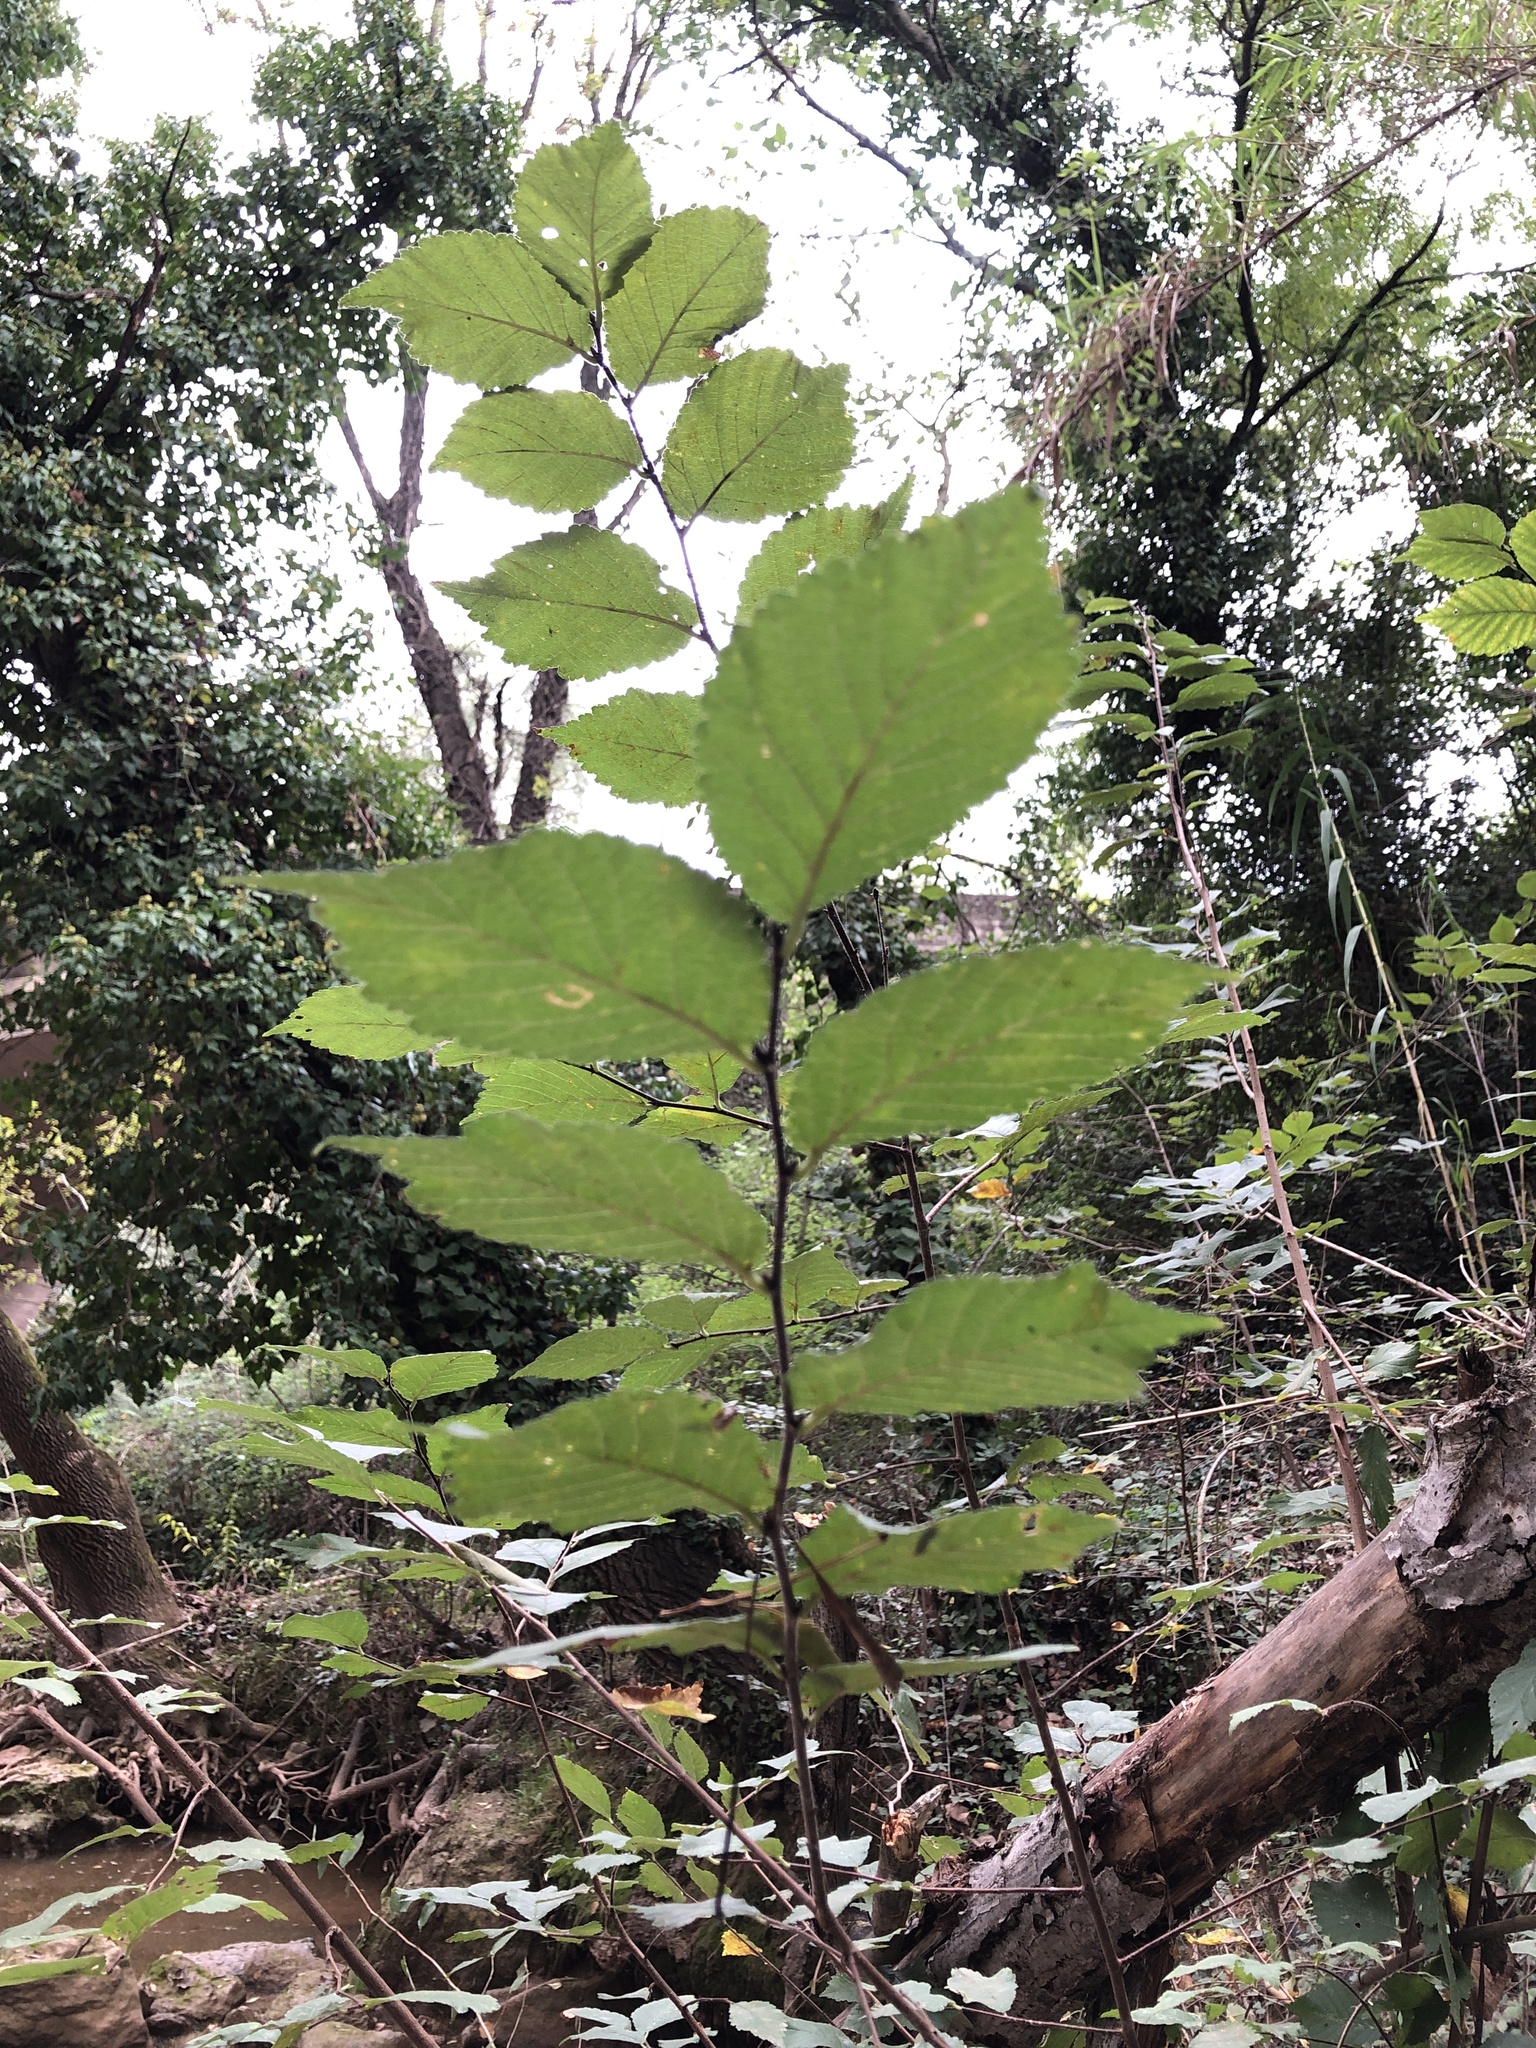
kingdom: Plantae
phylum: Tracheophyta
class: Magnoliopsida
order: Rosales
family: Ulmaceae
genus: Ulmus
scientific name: Ulmus minor
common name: Small-leaved elm
